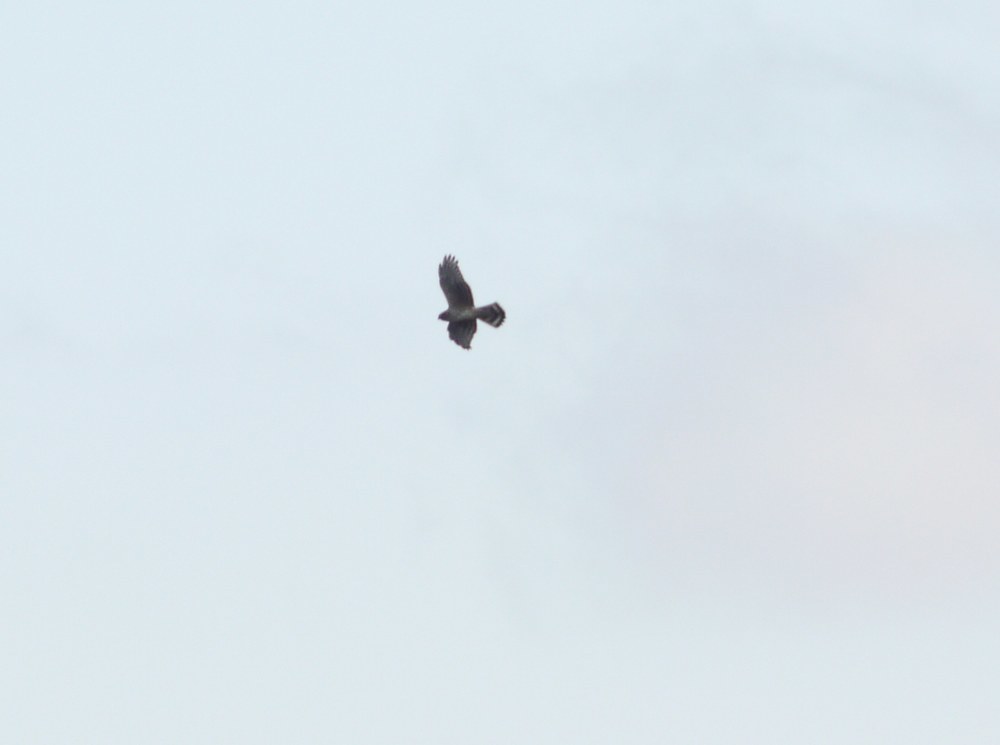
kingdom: Animalia
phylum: Chordata
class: Aves
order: Accipitriformes
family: Accipitridae
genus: Circus
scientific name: Circus cyaneus
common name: Hen harrier
